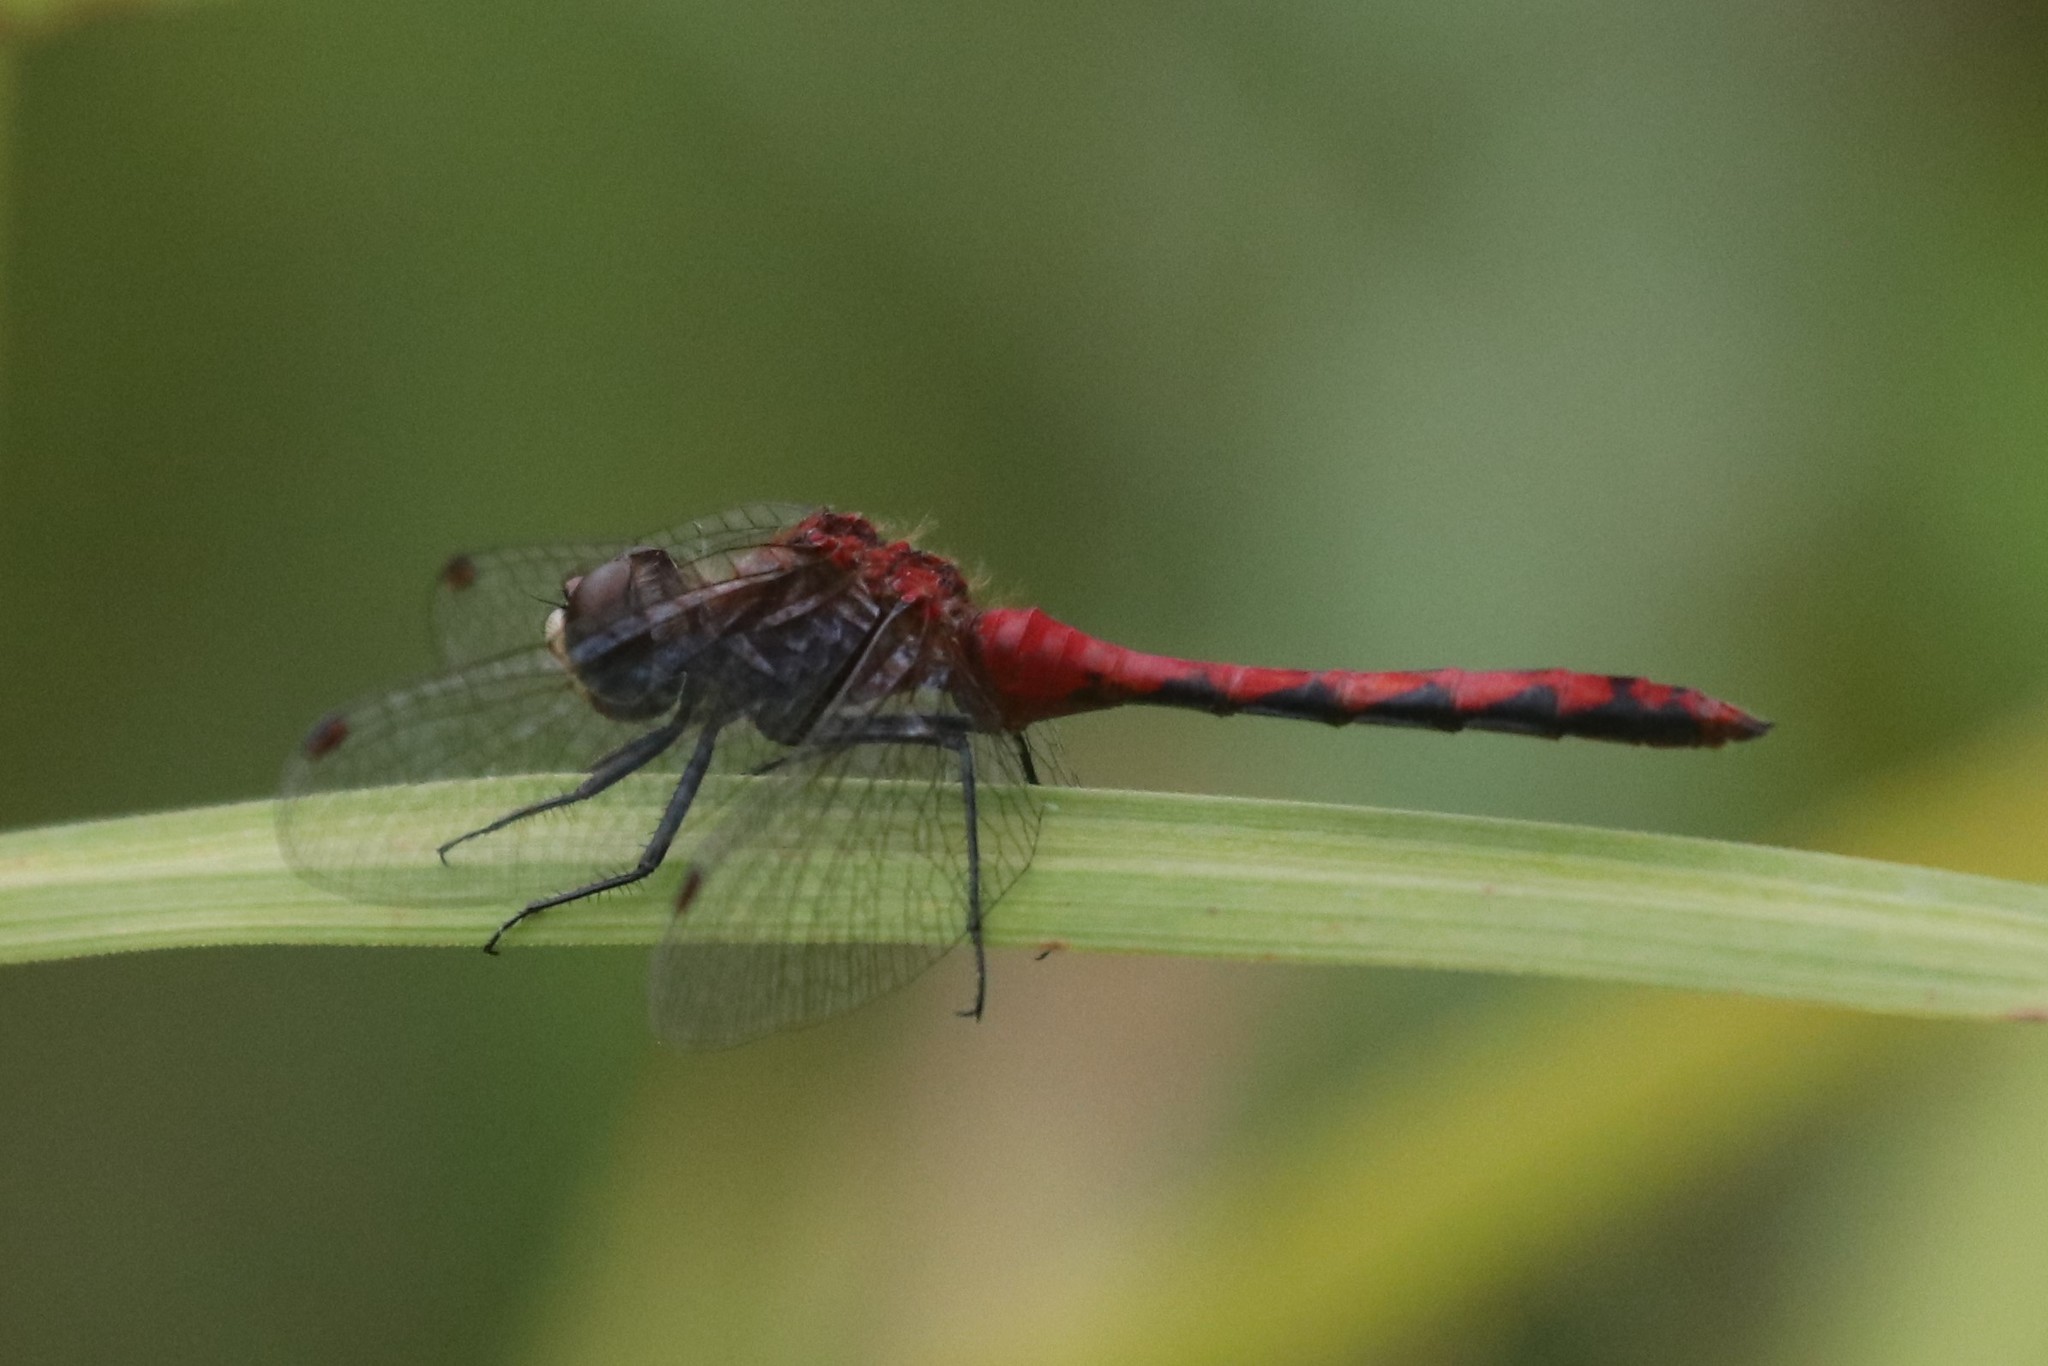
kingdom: Animalia
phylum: Arthropoda
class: Insecta
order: Odonata
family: Libellulidae
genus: Sympetrum
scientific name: Sympetrum obtrusum
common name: White-faced meadowhawk
